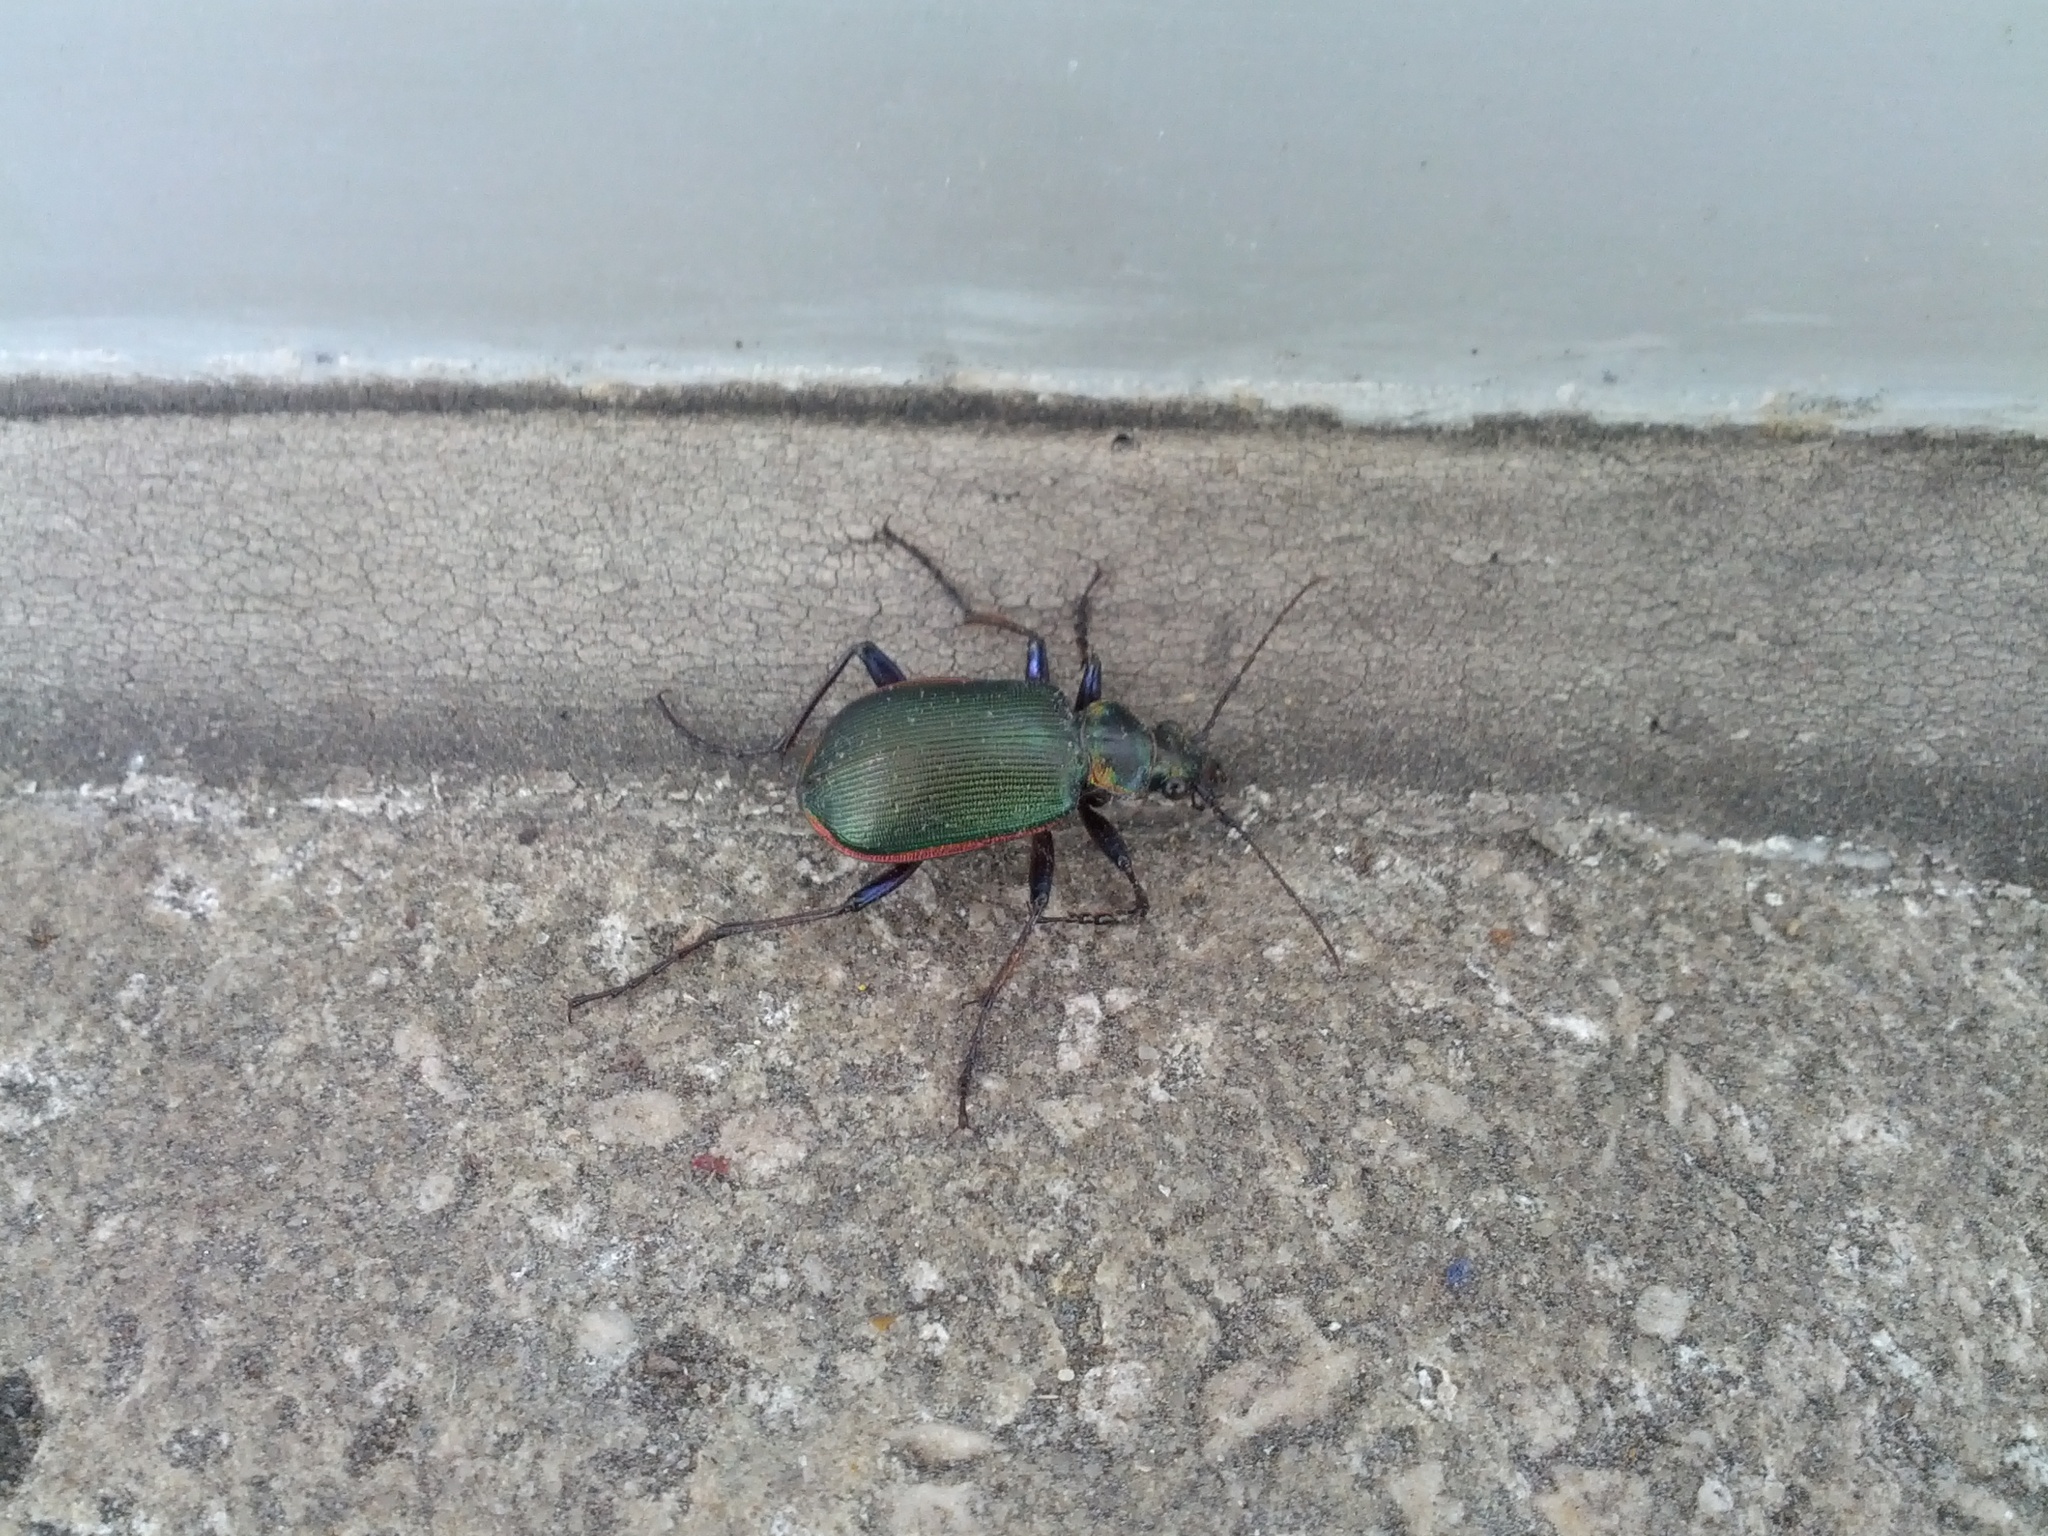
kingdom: Animalia
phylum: Arthropoda
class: Insecta
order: Coleoptera
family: Carabidae
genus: Calosoma
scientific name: Calosoma scrutator
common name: Fiery searcher beetle
